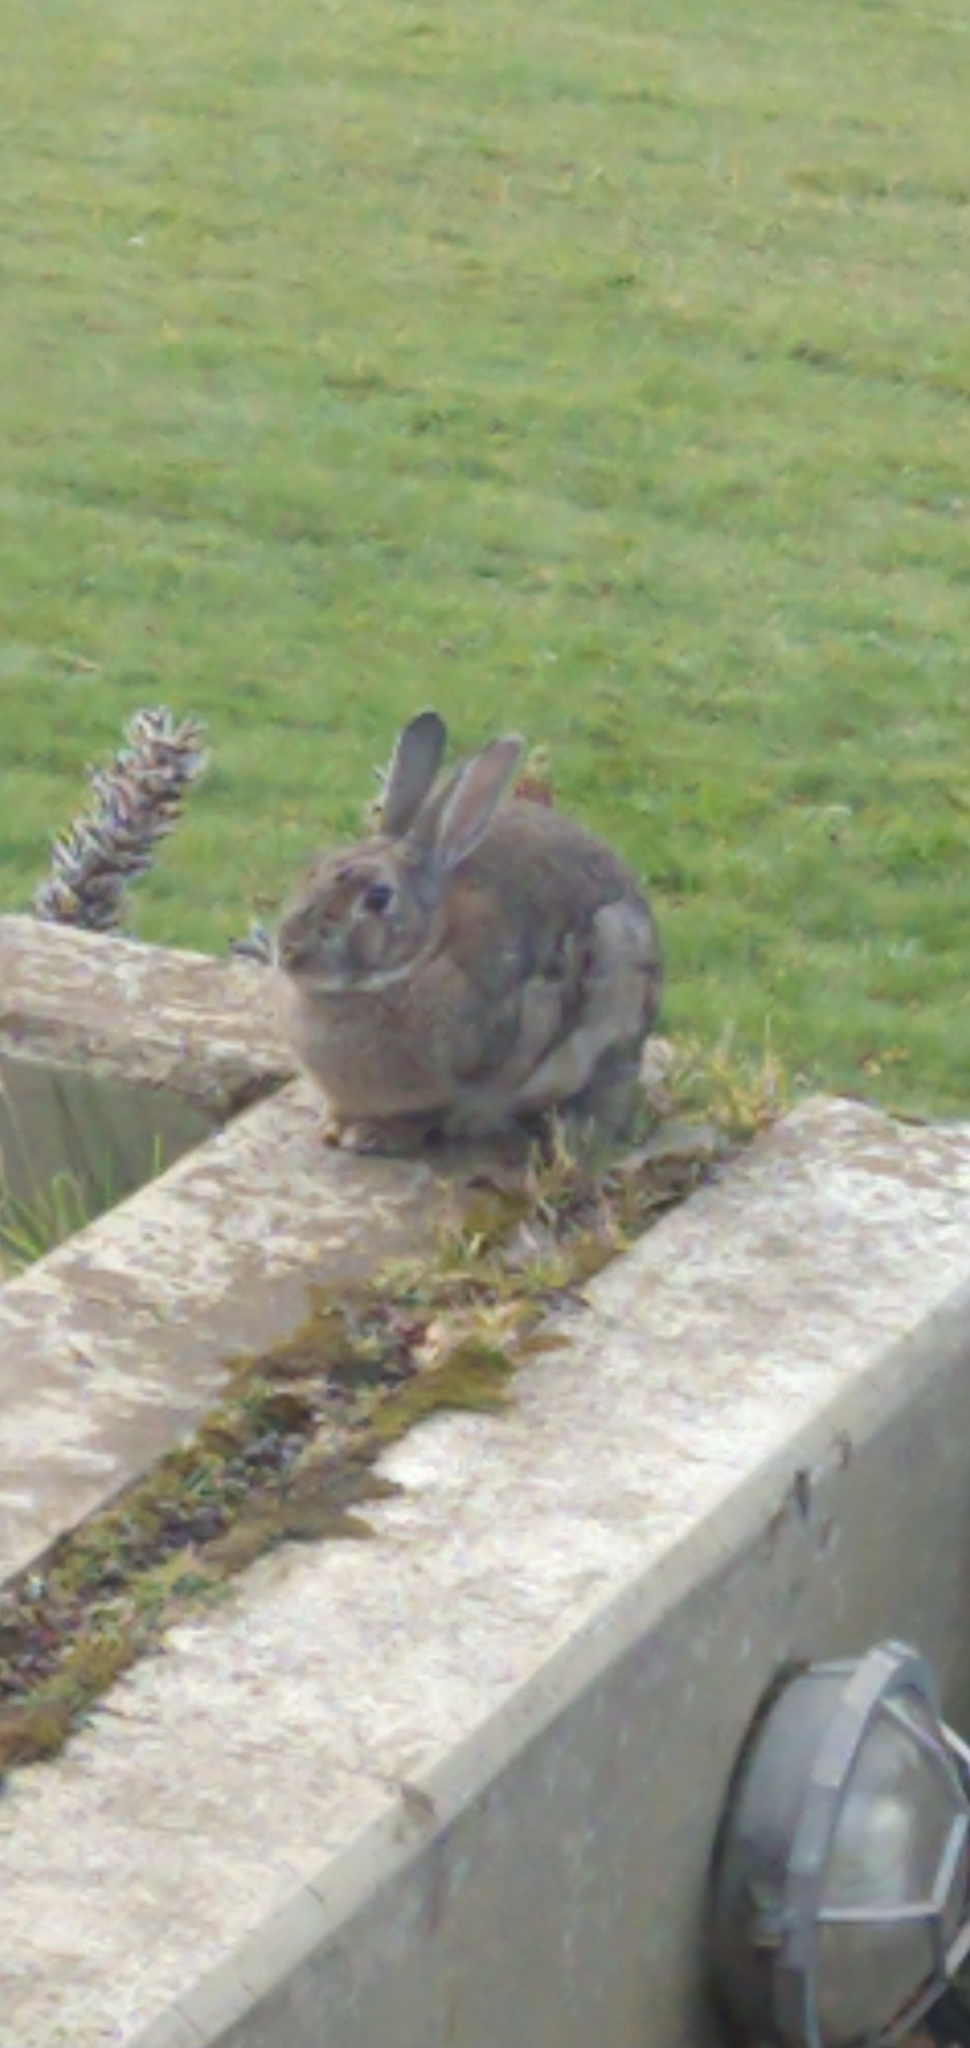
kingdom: Animalia
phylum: Chordata
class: Mammalia
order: Lagomorpha
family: Leporidae
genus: Oryctolagus
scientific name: Oryctolagus cuniculus
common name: European rabbit
